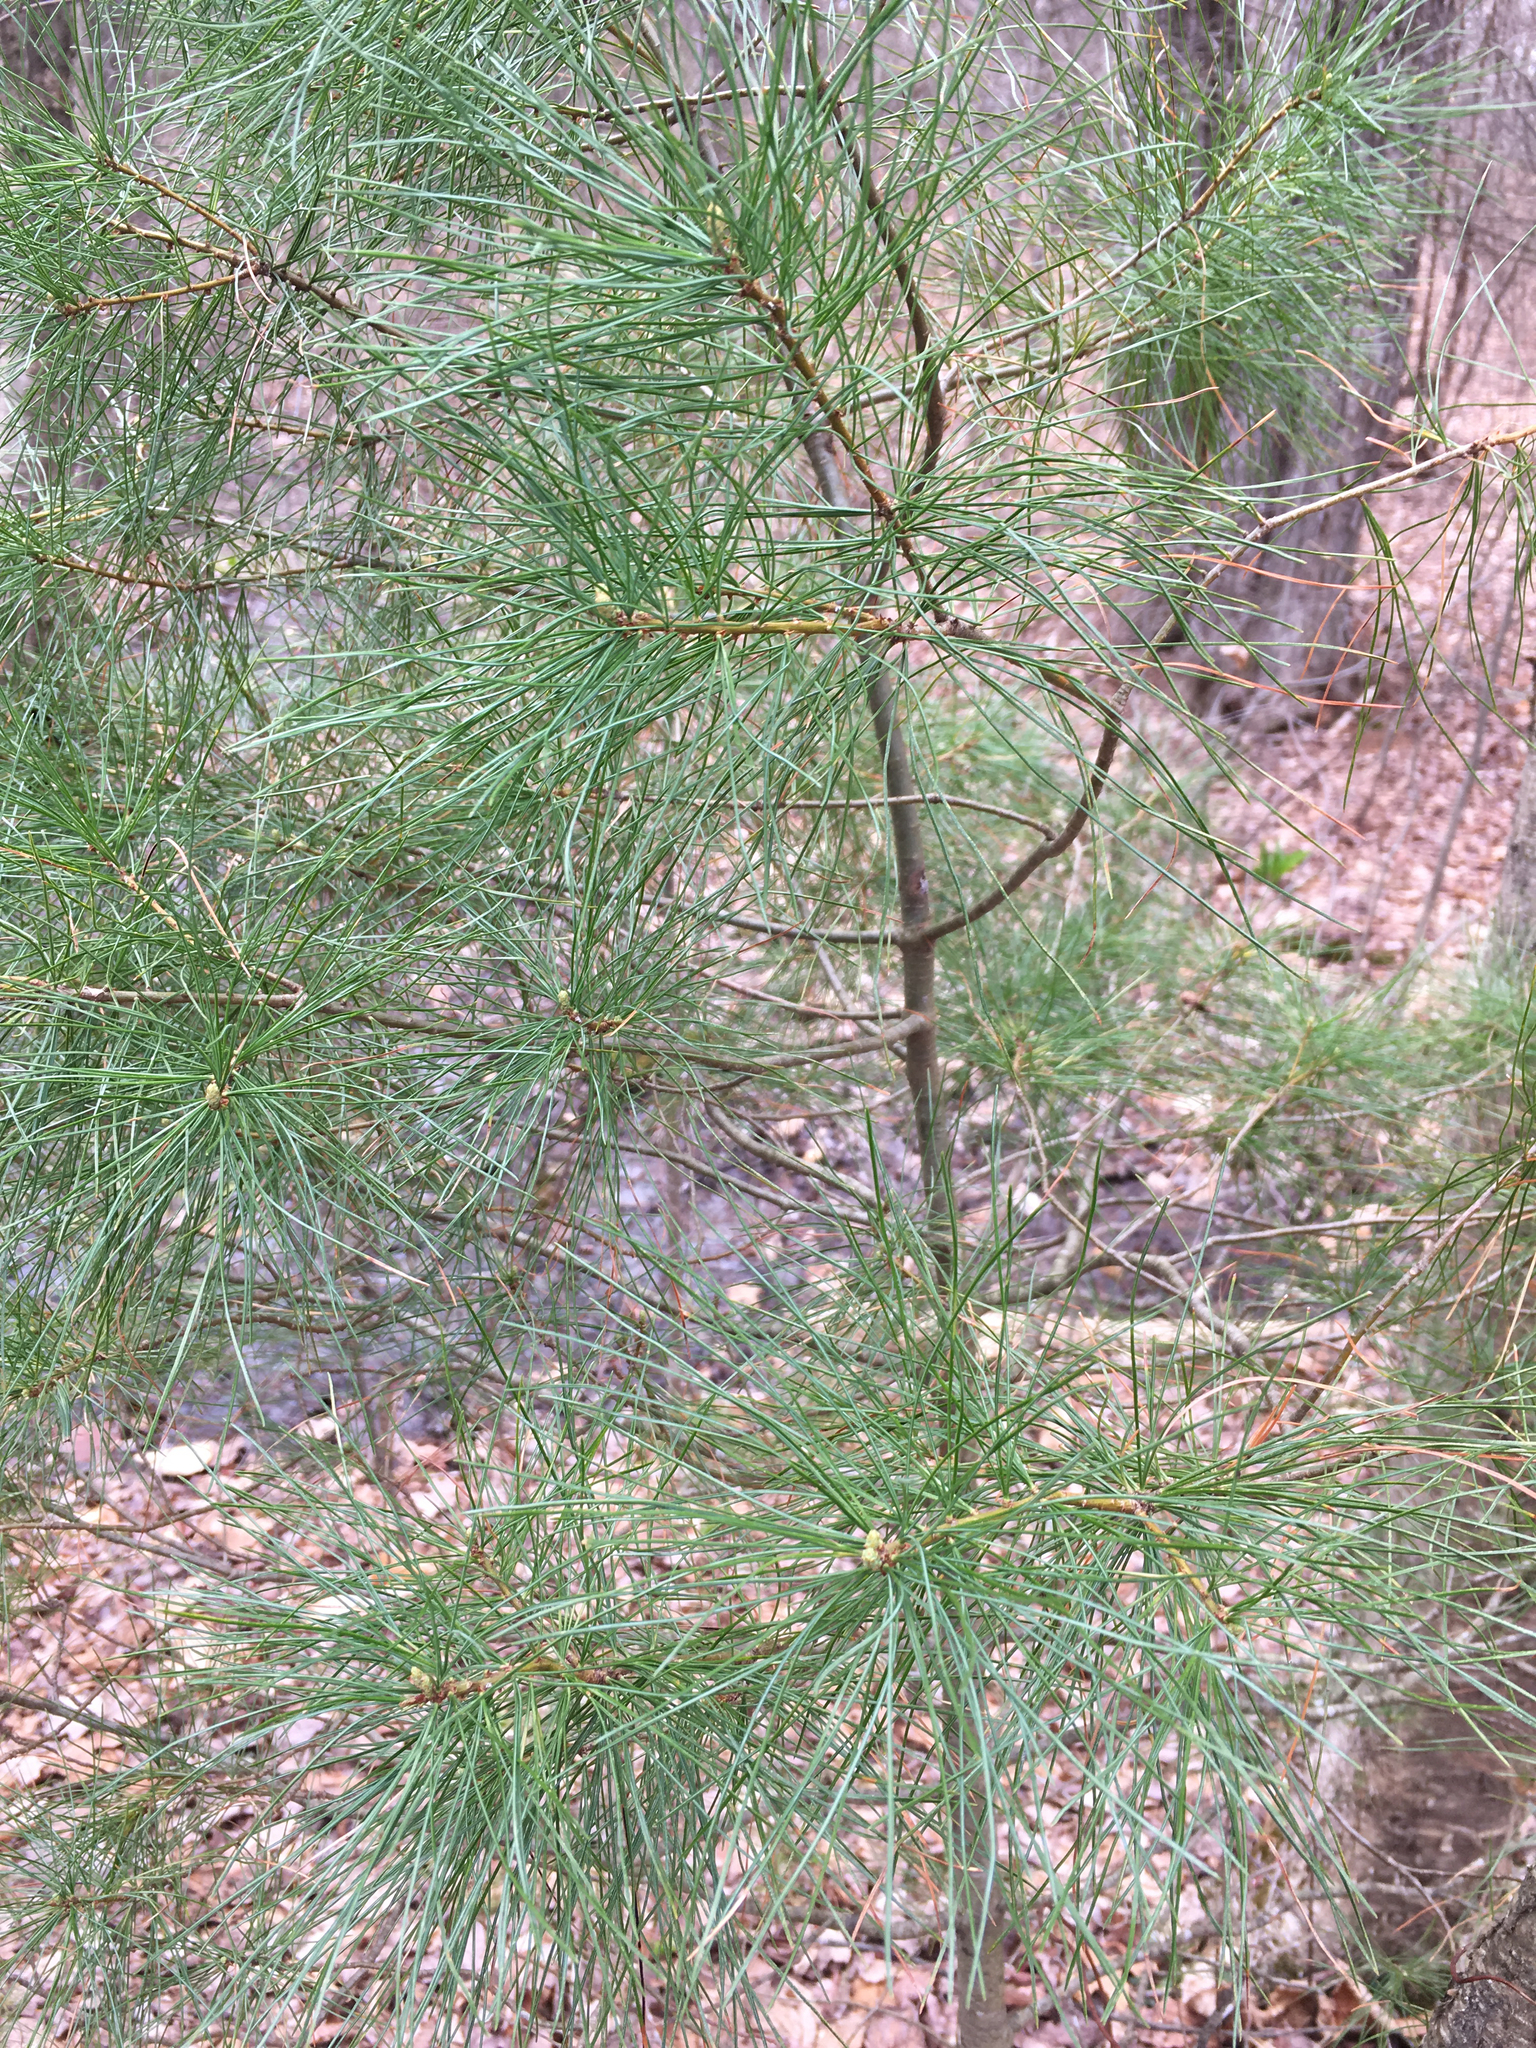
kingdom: Plantae
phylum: Tracheophyta
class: Pinopsida
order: Pinales
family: Pinaceae
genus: Pinus
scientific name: Pinus strobus
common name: Weymouth pine
